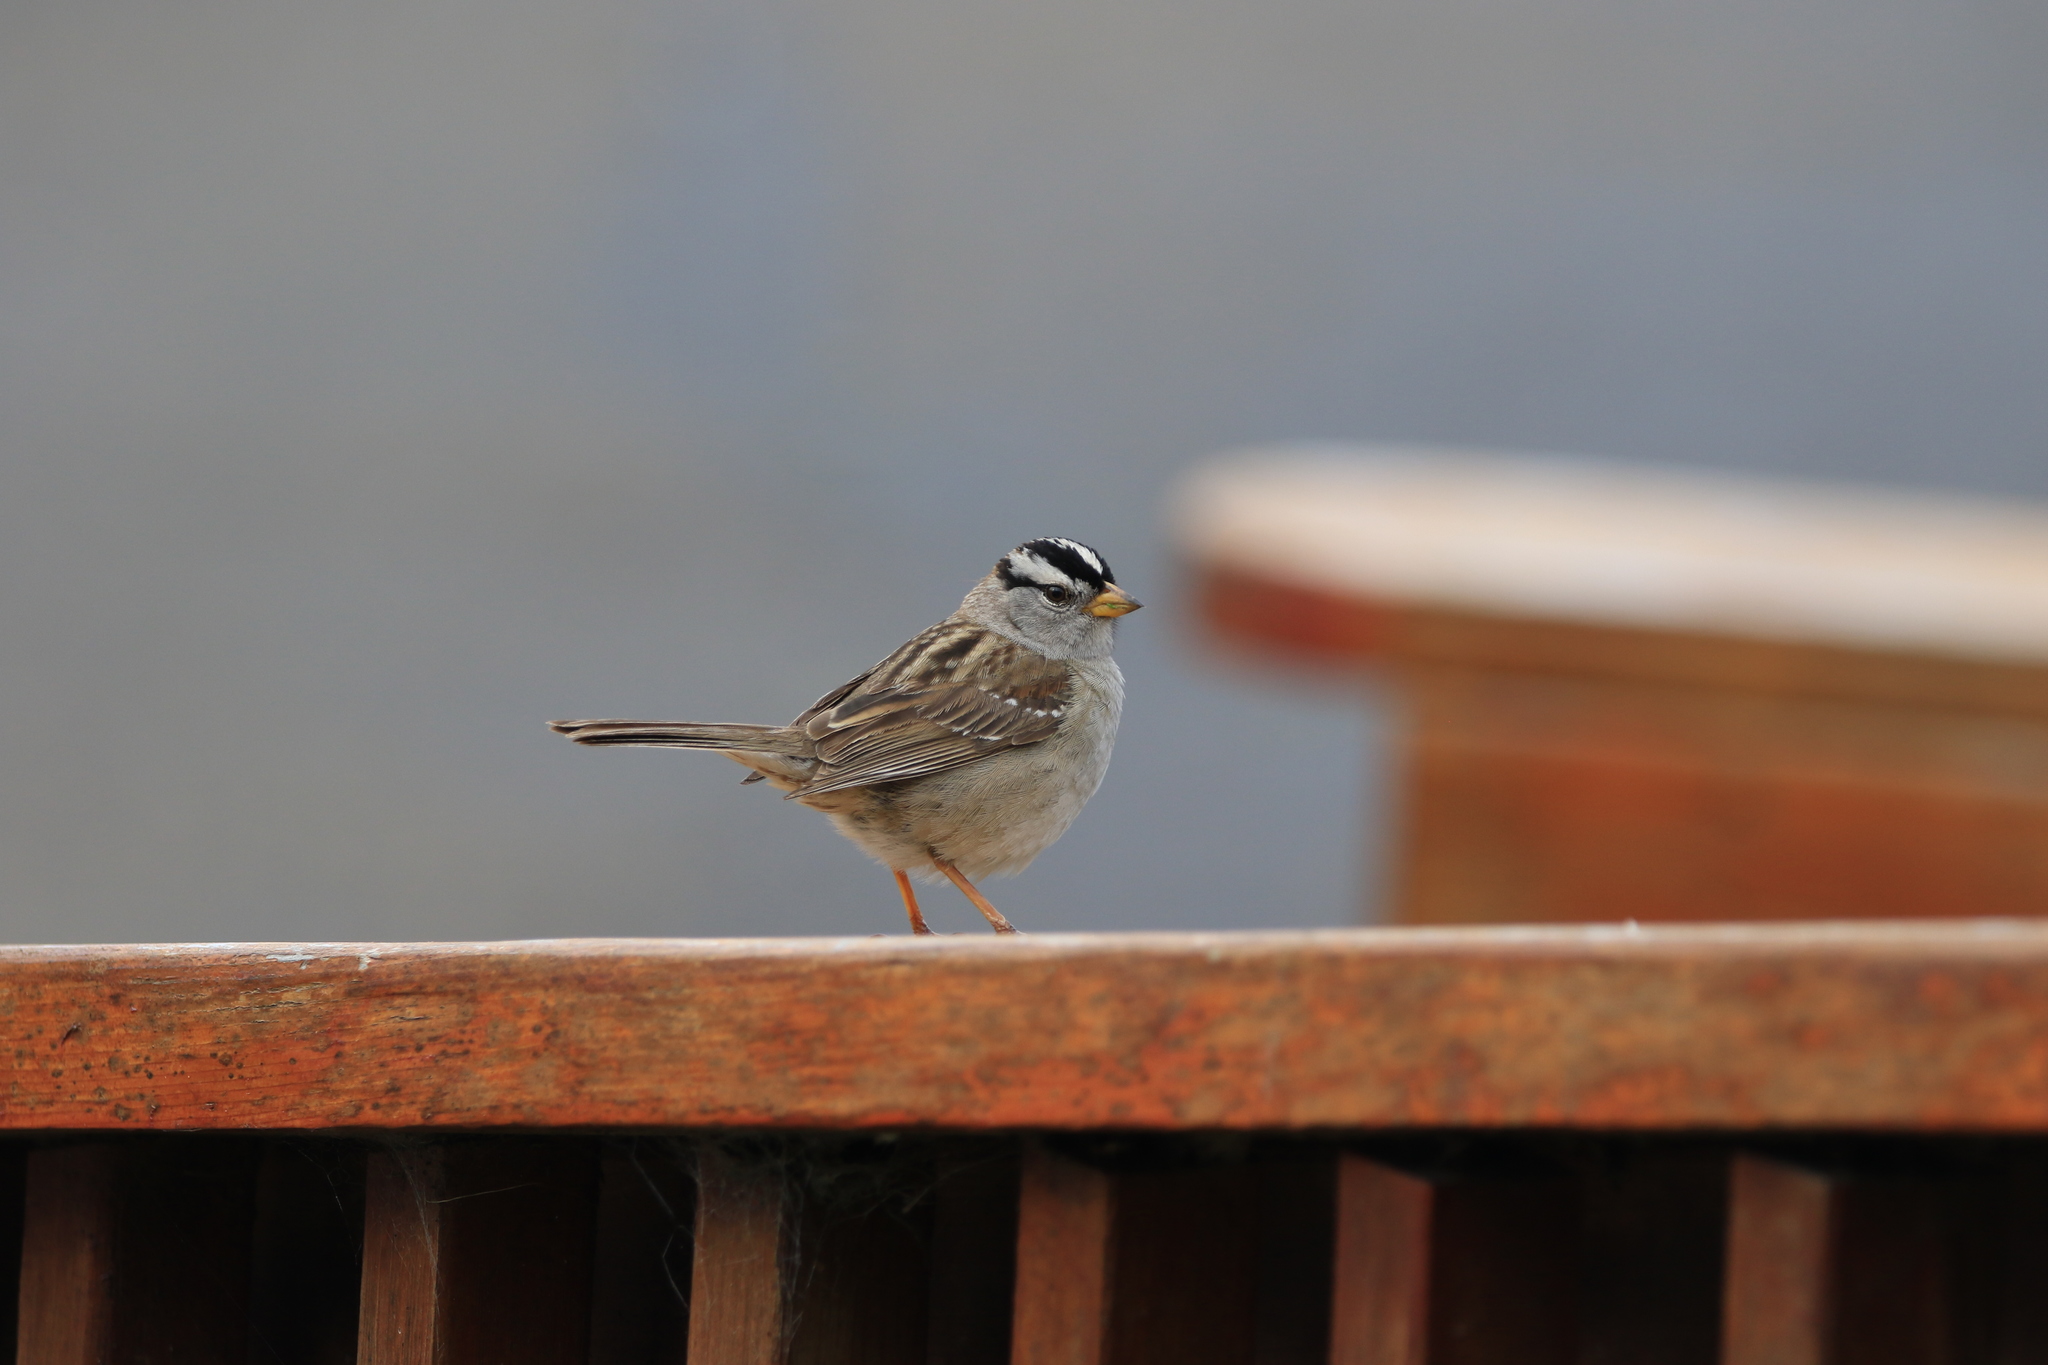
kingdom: Animalia
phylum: Chordata
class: Aves
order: Passeriformes
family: Passerellidae
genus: Zonotrichia
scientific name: Zonotrichia leucophrys
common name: White-crowned sparrow
